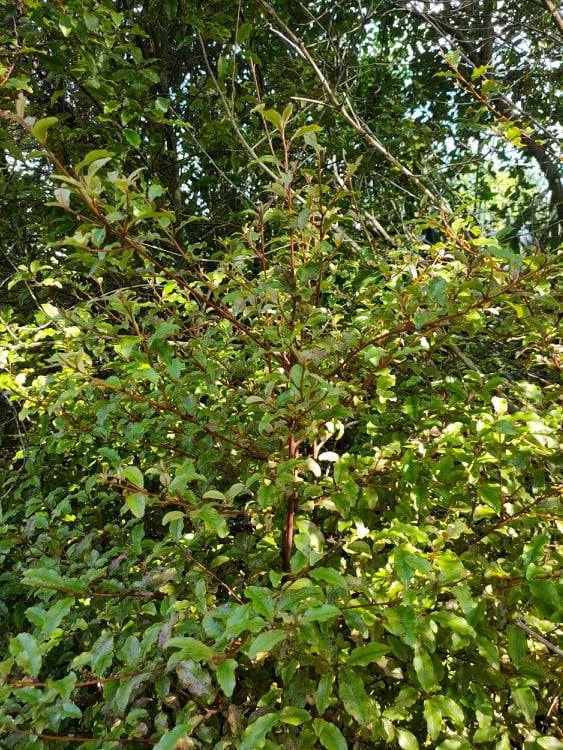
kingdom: Plantae
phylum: Tracheophyta
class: Magnoliopsida
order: Ericales
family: Primulaceae
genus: Myrsine
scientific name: Myrsine australis
